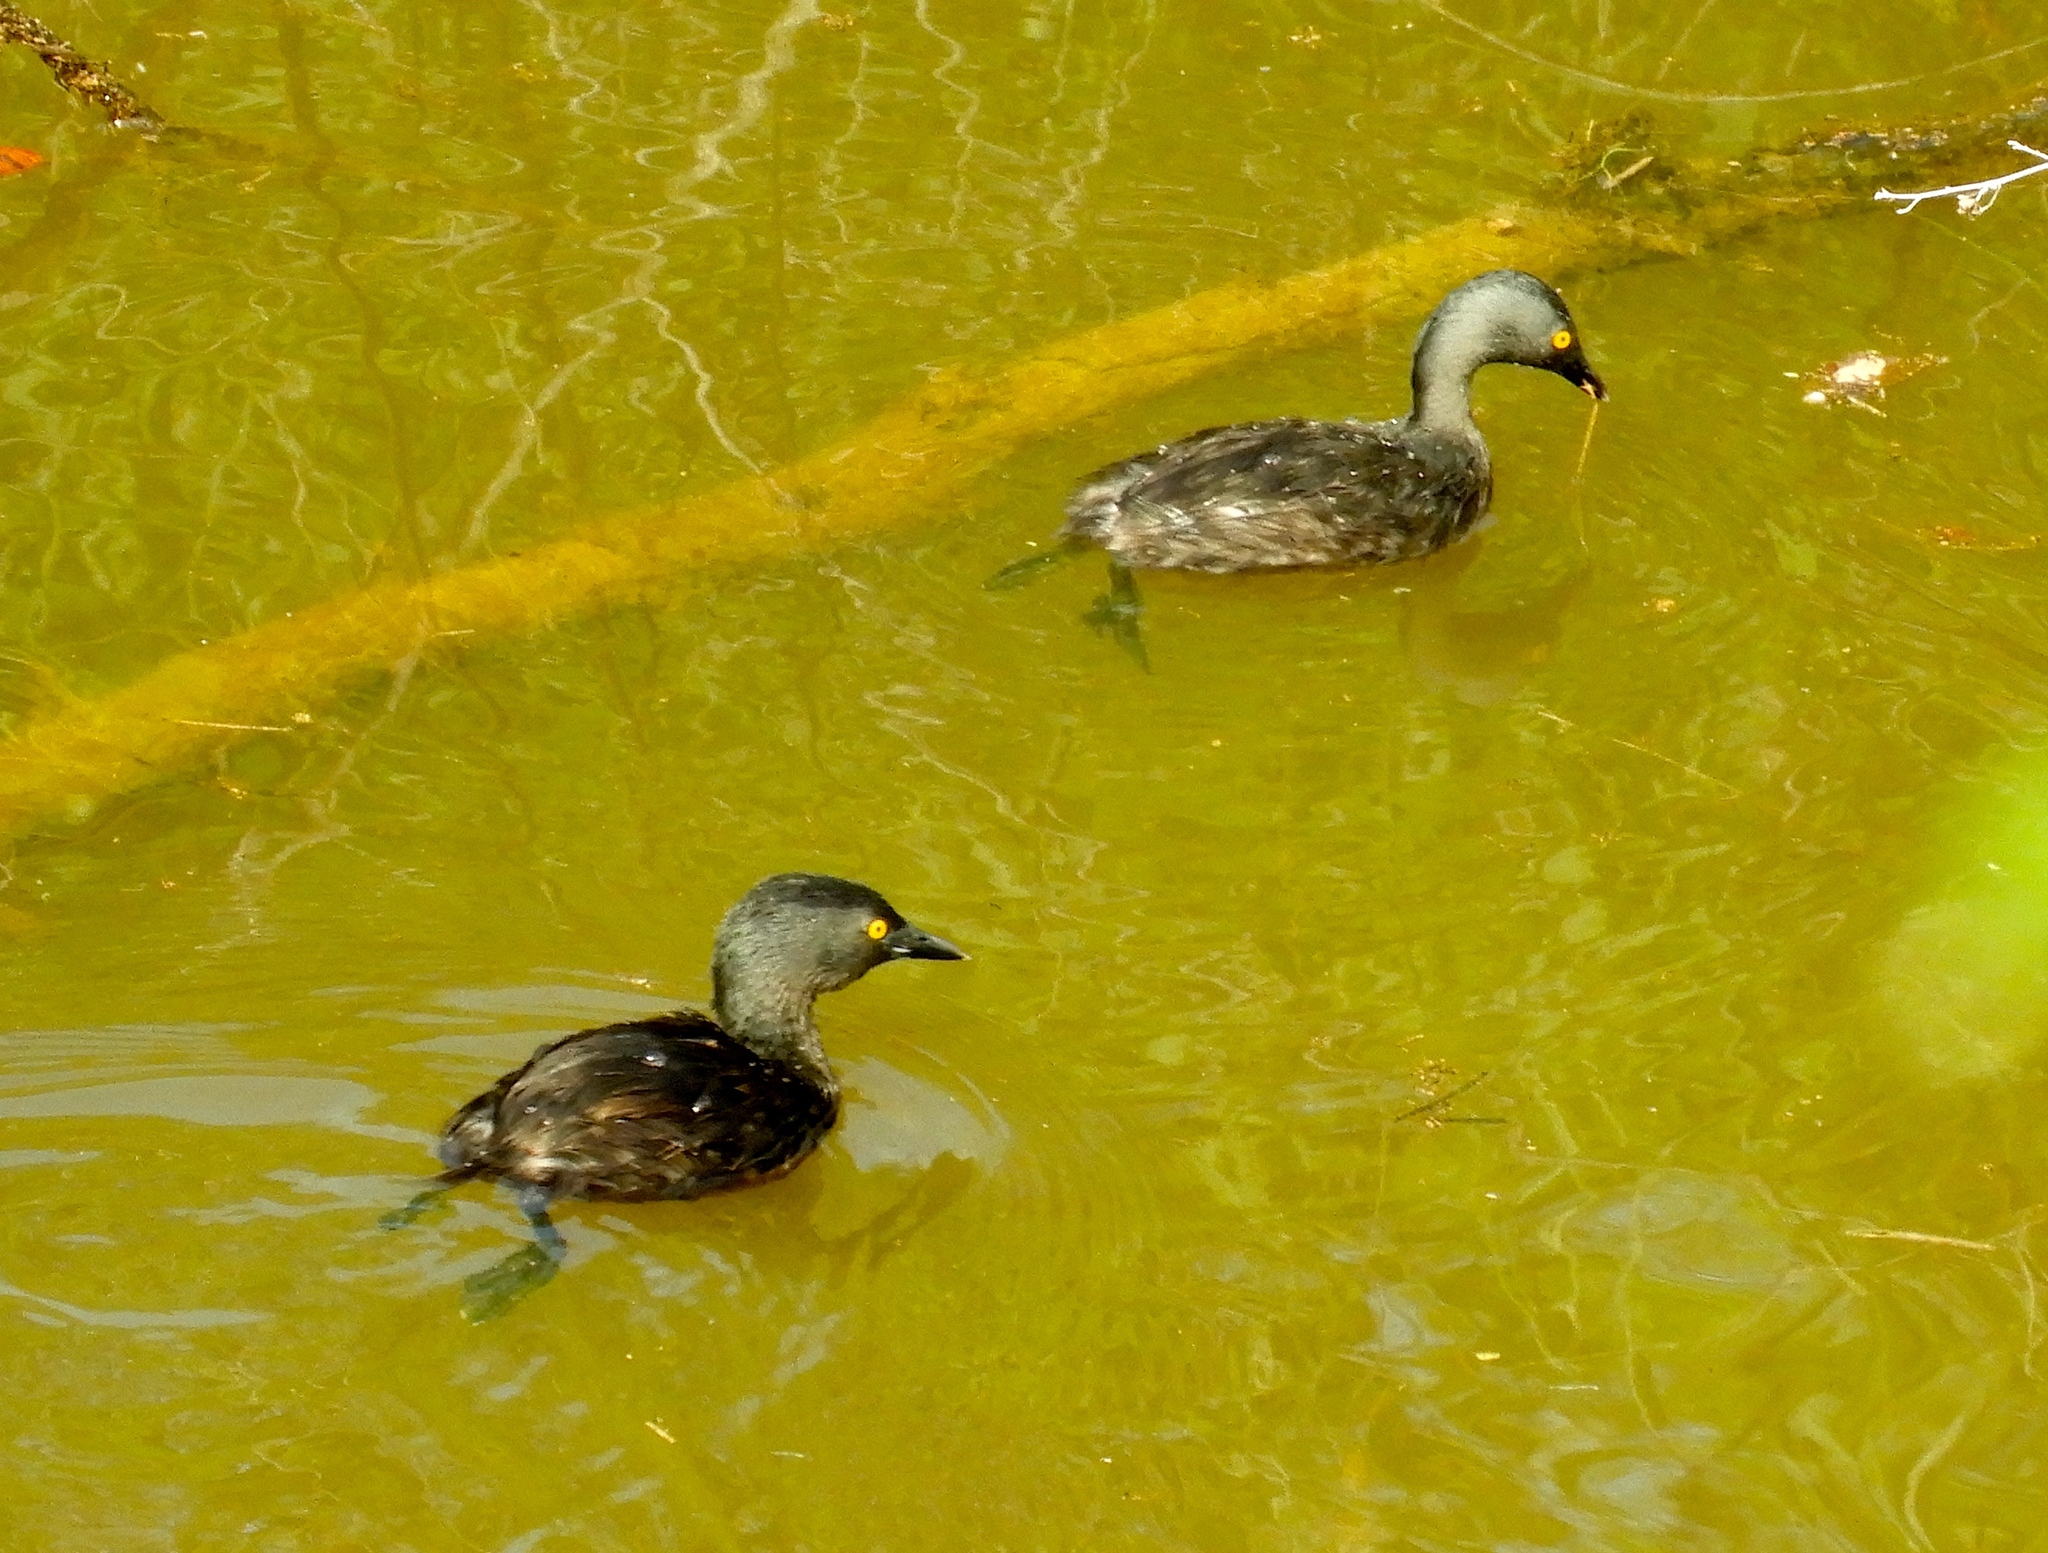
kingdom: Animalia
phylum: Chordata
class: Aves
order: Podicipediformes
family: Podicipedidae
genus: Tachybaptus
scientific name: Tachybaptus dominicus
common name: Least grebe
